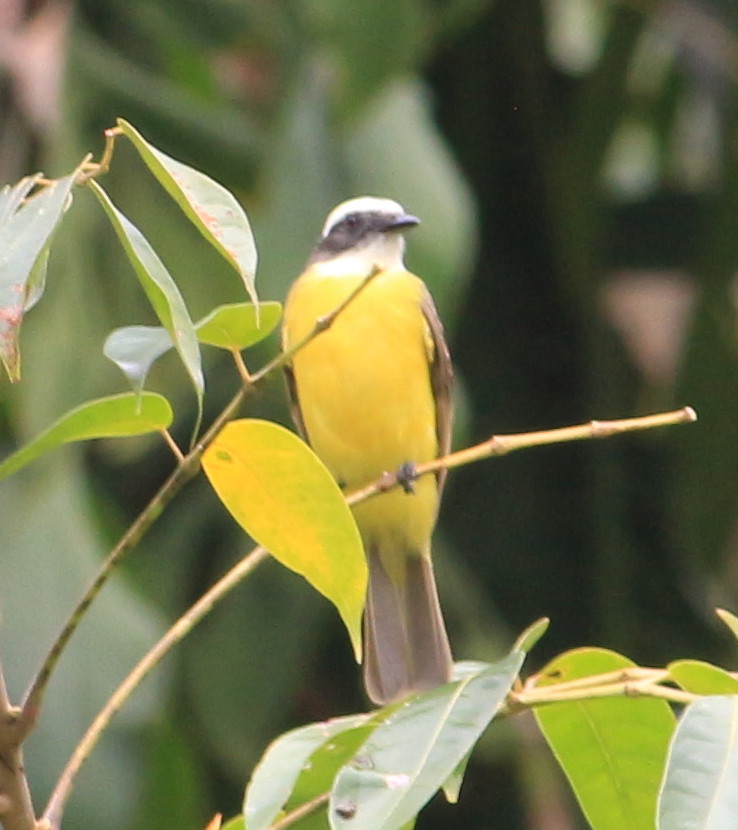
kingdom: Animalia
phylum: Chordata
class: Aves
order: Passeriformes
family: Tyrannidae
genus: Myiozetetes
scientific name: Myiozetetes similis
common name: Social flycatcher
